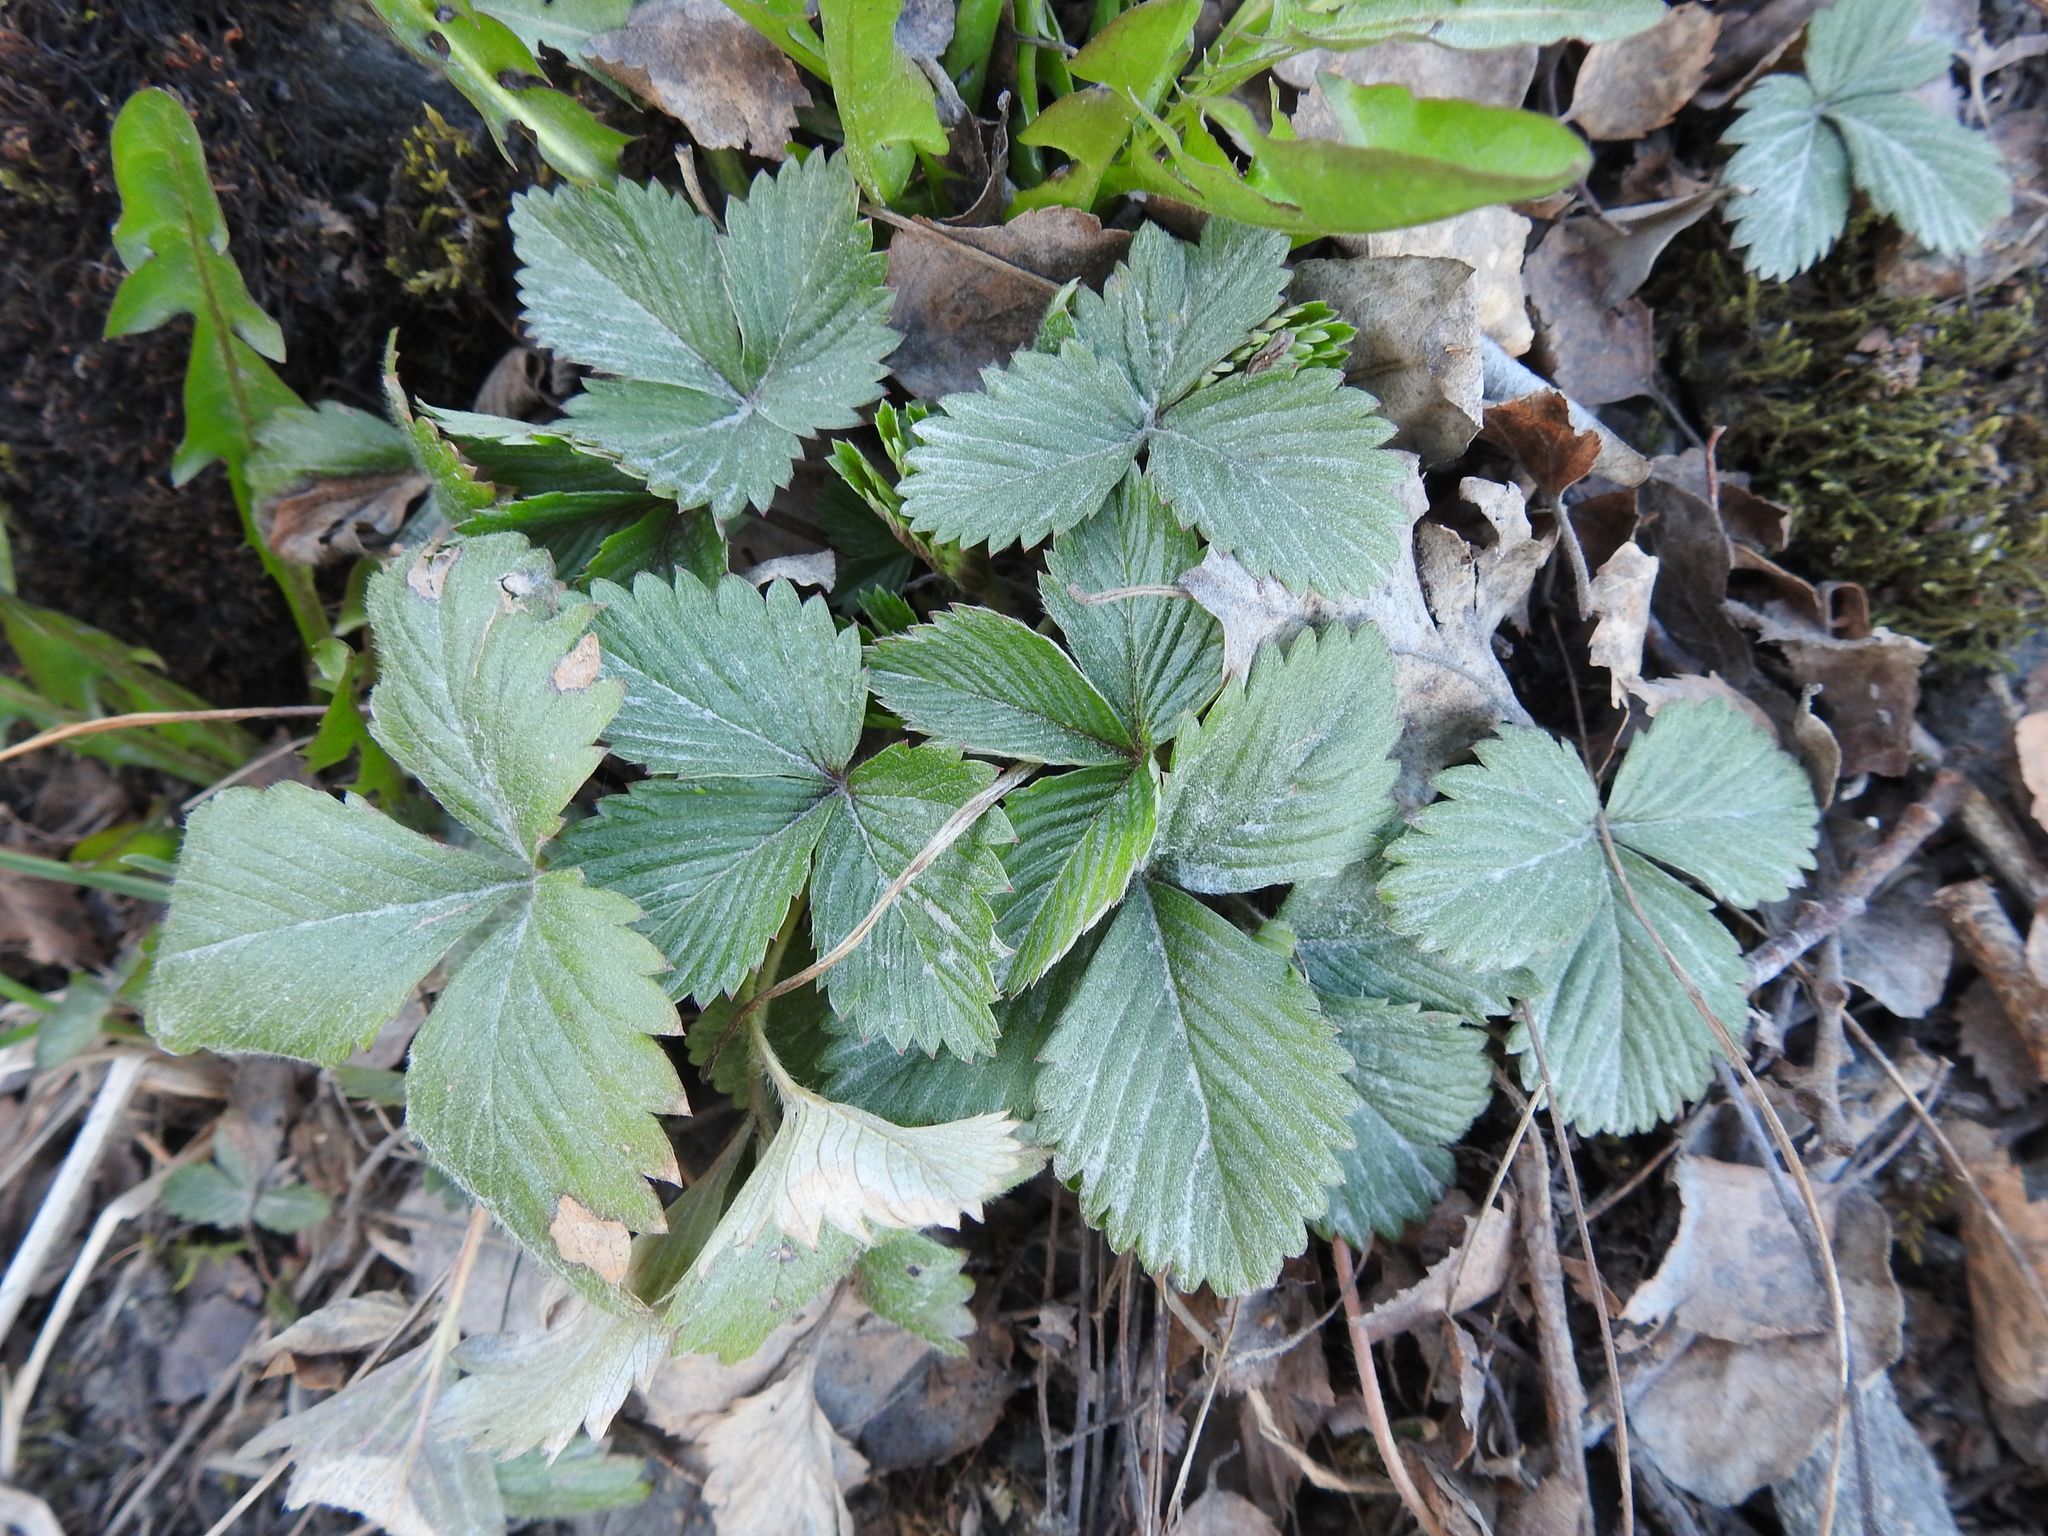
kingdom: Plantae
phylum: Tracheophyta
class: Magnoliopsida
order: Rosales
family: Rosaceae
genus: Fragaria
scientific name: Fragaria vesca
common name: Wild strawberry
